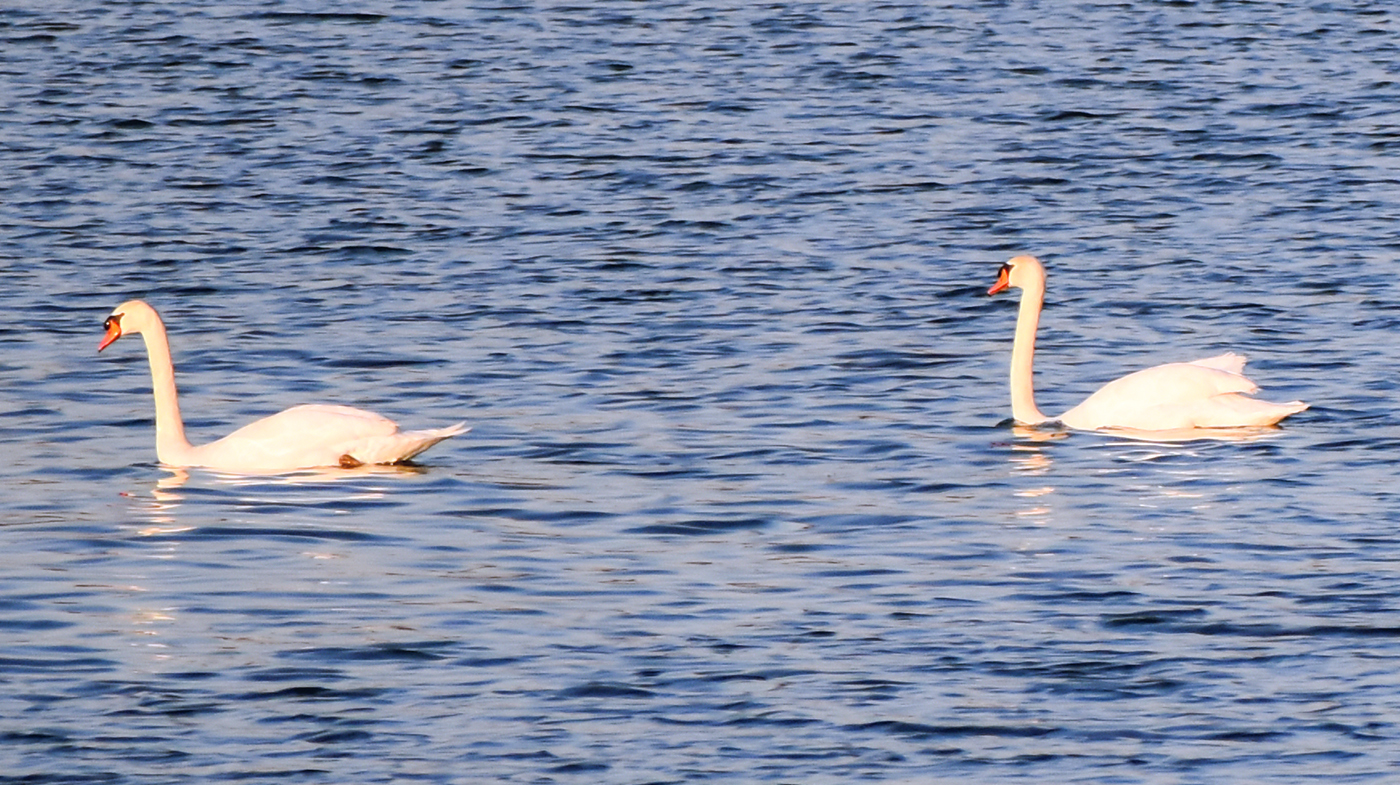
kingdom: Animalia
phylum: Chordata
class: Aves
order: Anseriformes
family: Anatidae
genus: Cygnus
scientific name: Cygnus olor
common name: Mute swan
